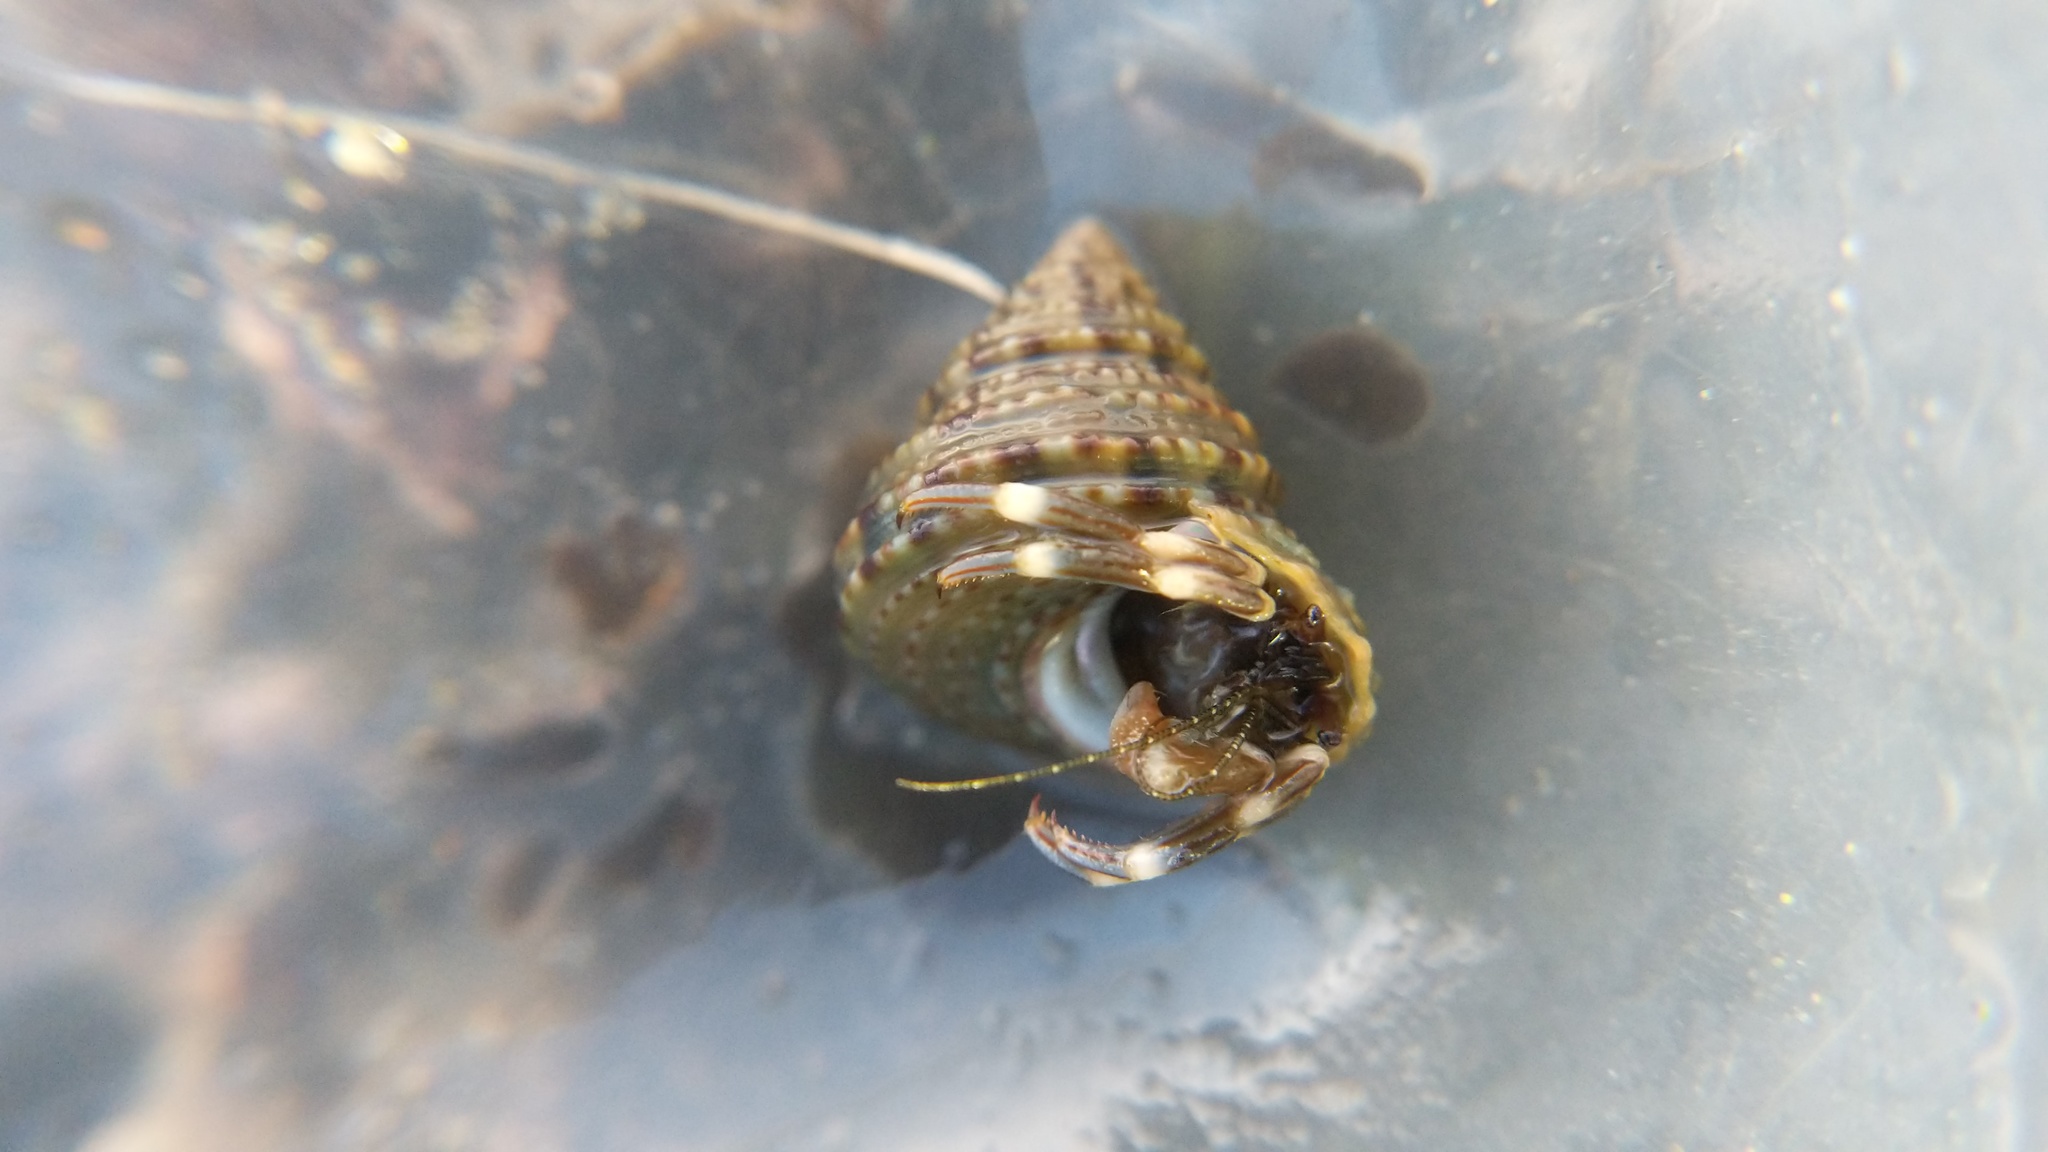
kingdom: Animalia
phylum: Mollusca
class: Gastropoda
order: Trochida
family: Calliostomatidae
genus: Calliostoma
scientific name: Calliostoma gemmulatum
